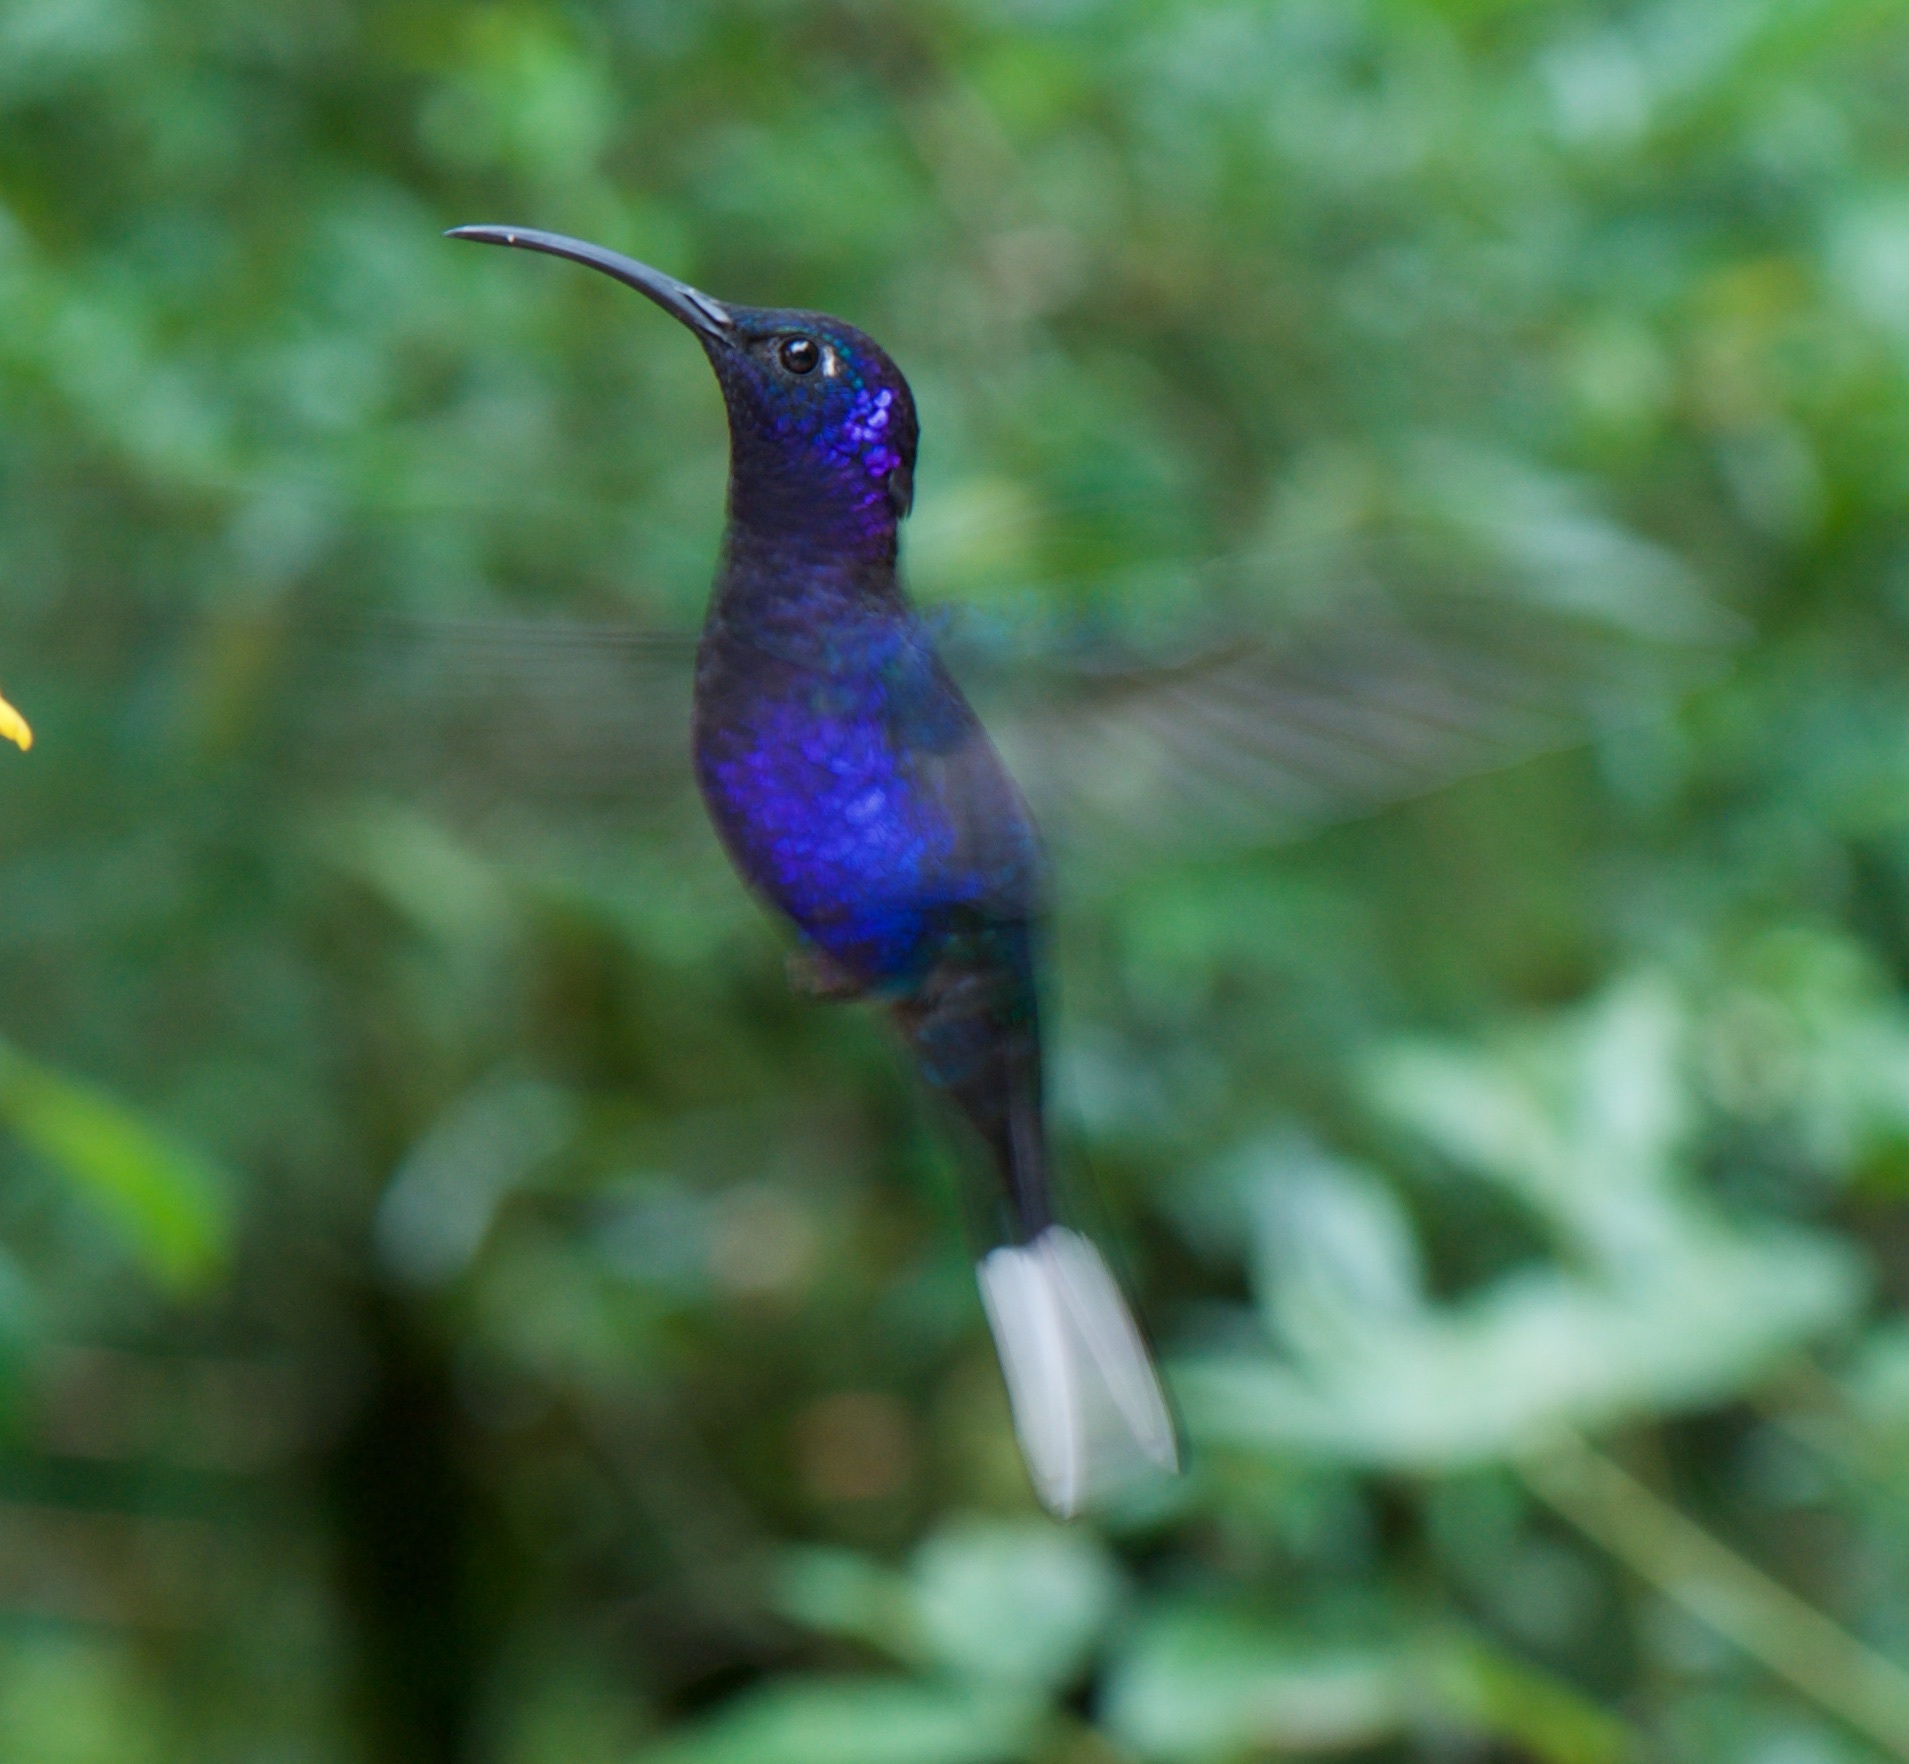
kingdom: Animalia
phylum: Chordata
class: Aves
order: Apodiformes
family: Trochilidae
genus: Campylopterus
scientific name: Campylopterus hemileucurus
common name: Violet sabrewing
